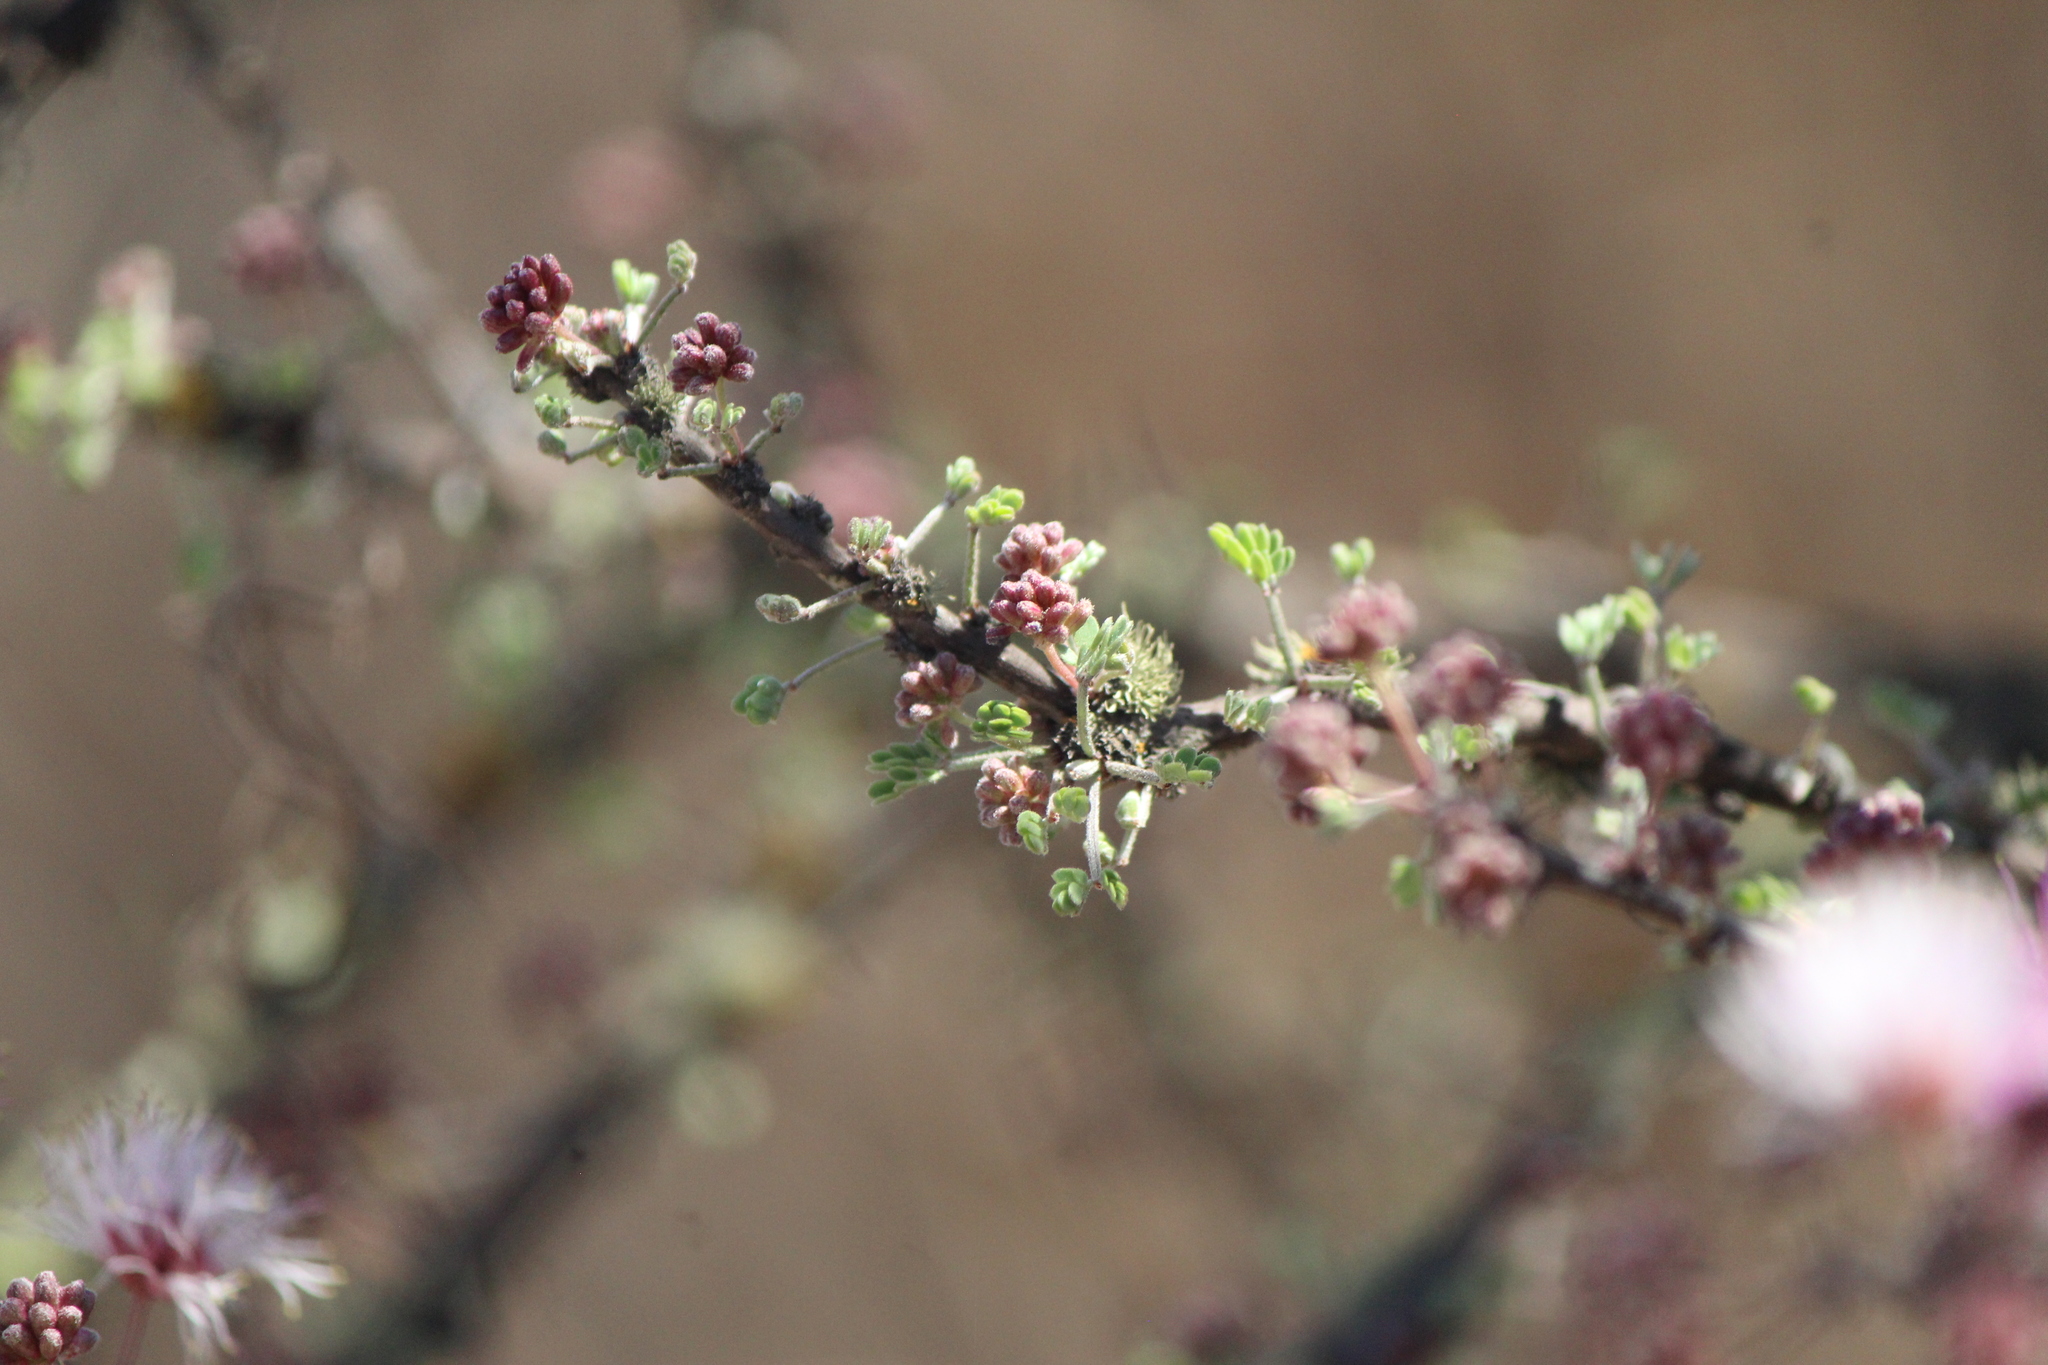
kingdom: Plantae
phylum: Tracheophyta
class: Magnoliopsida
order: Fabales
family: Fabaceae
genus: Mimosa
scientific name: Mimosa zygophylla
